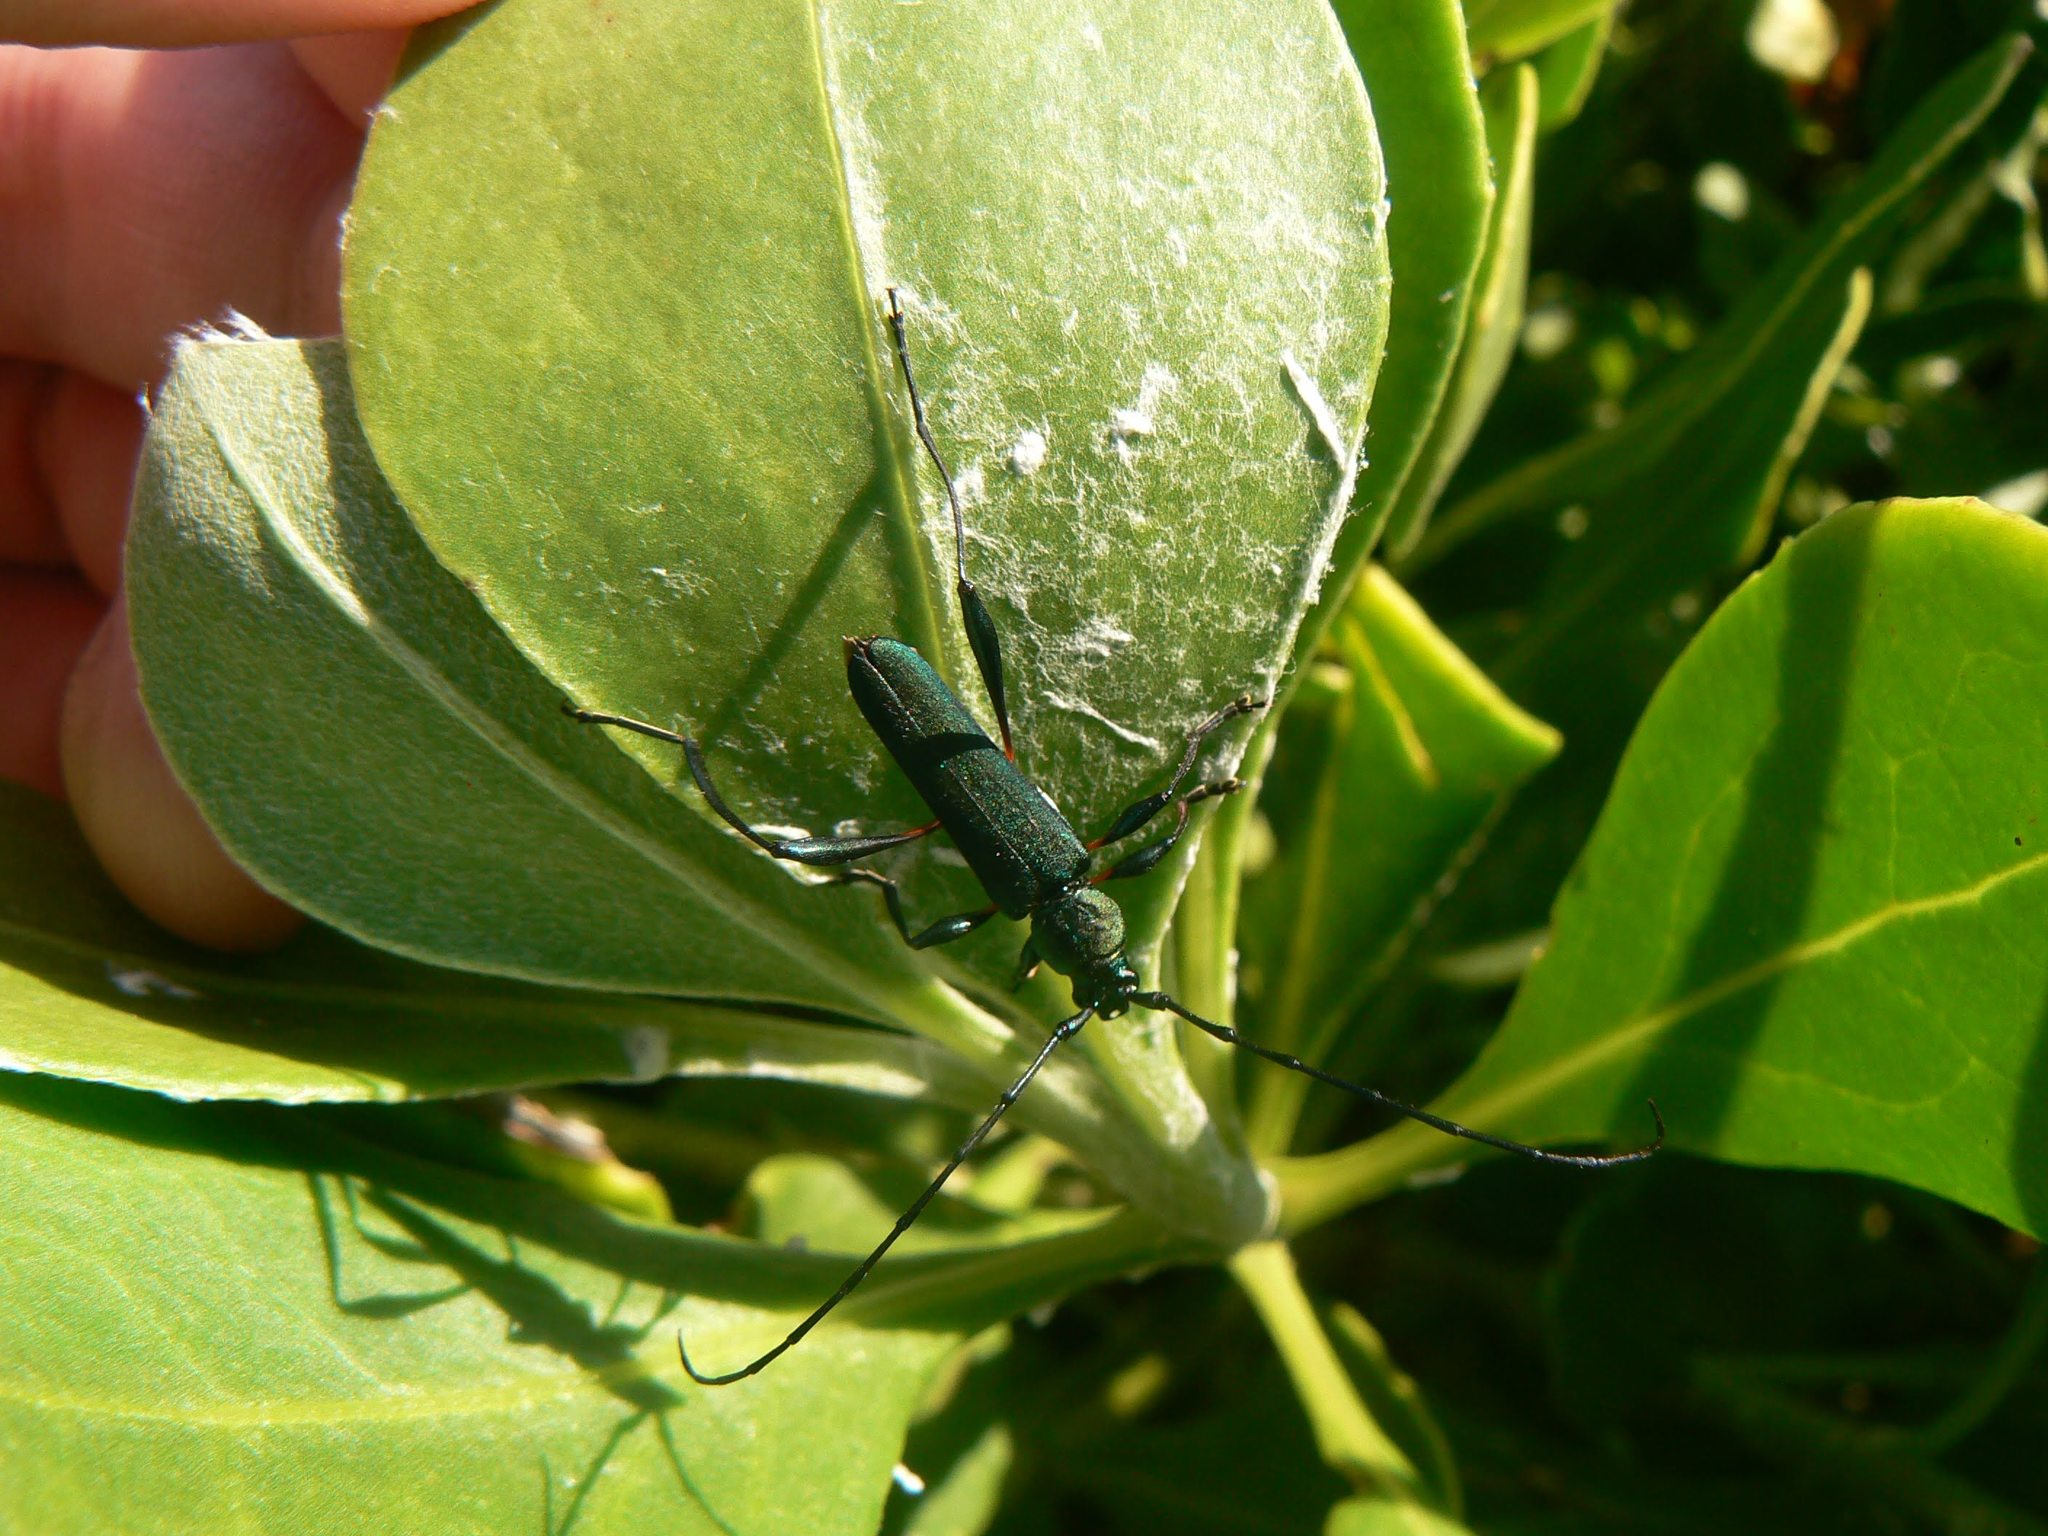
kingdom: Animalia
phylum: Arthropoda
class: Insecta
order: Coleoptera
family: Cerambycidae
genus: Litopus
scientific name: Litopus latipes
